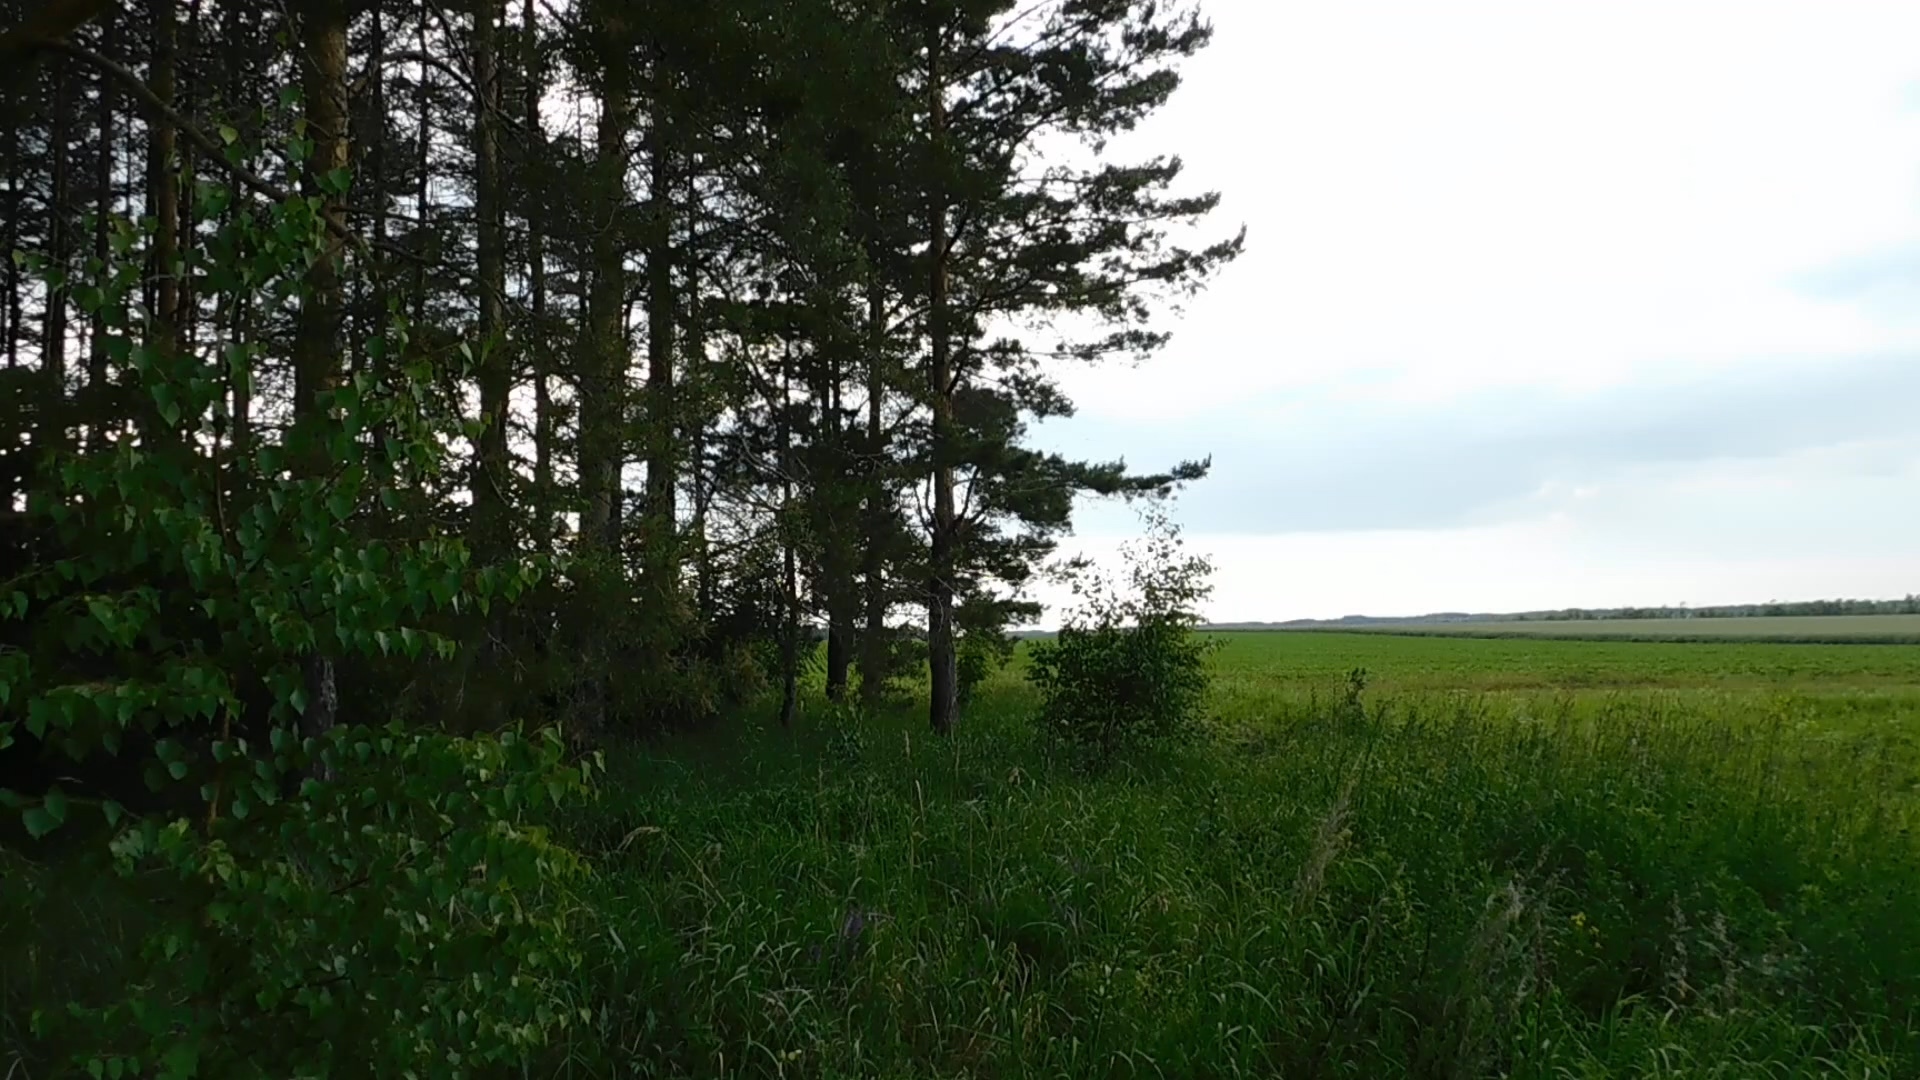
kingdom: Animalia
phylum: Chordata
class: Aves
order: Passeriformes
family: Sylviidae
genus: Sylvia
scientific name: Sylvia communis
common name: Common whitethroat
